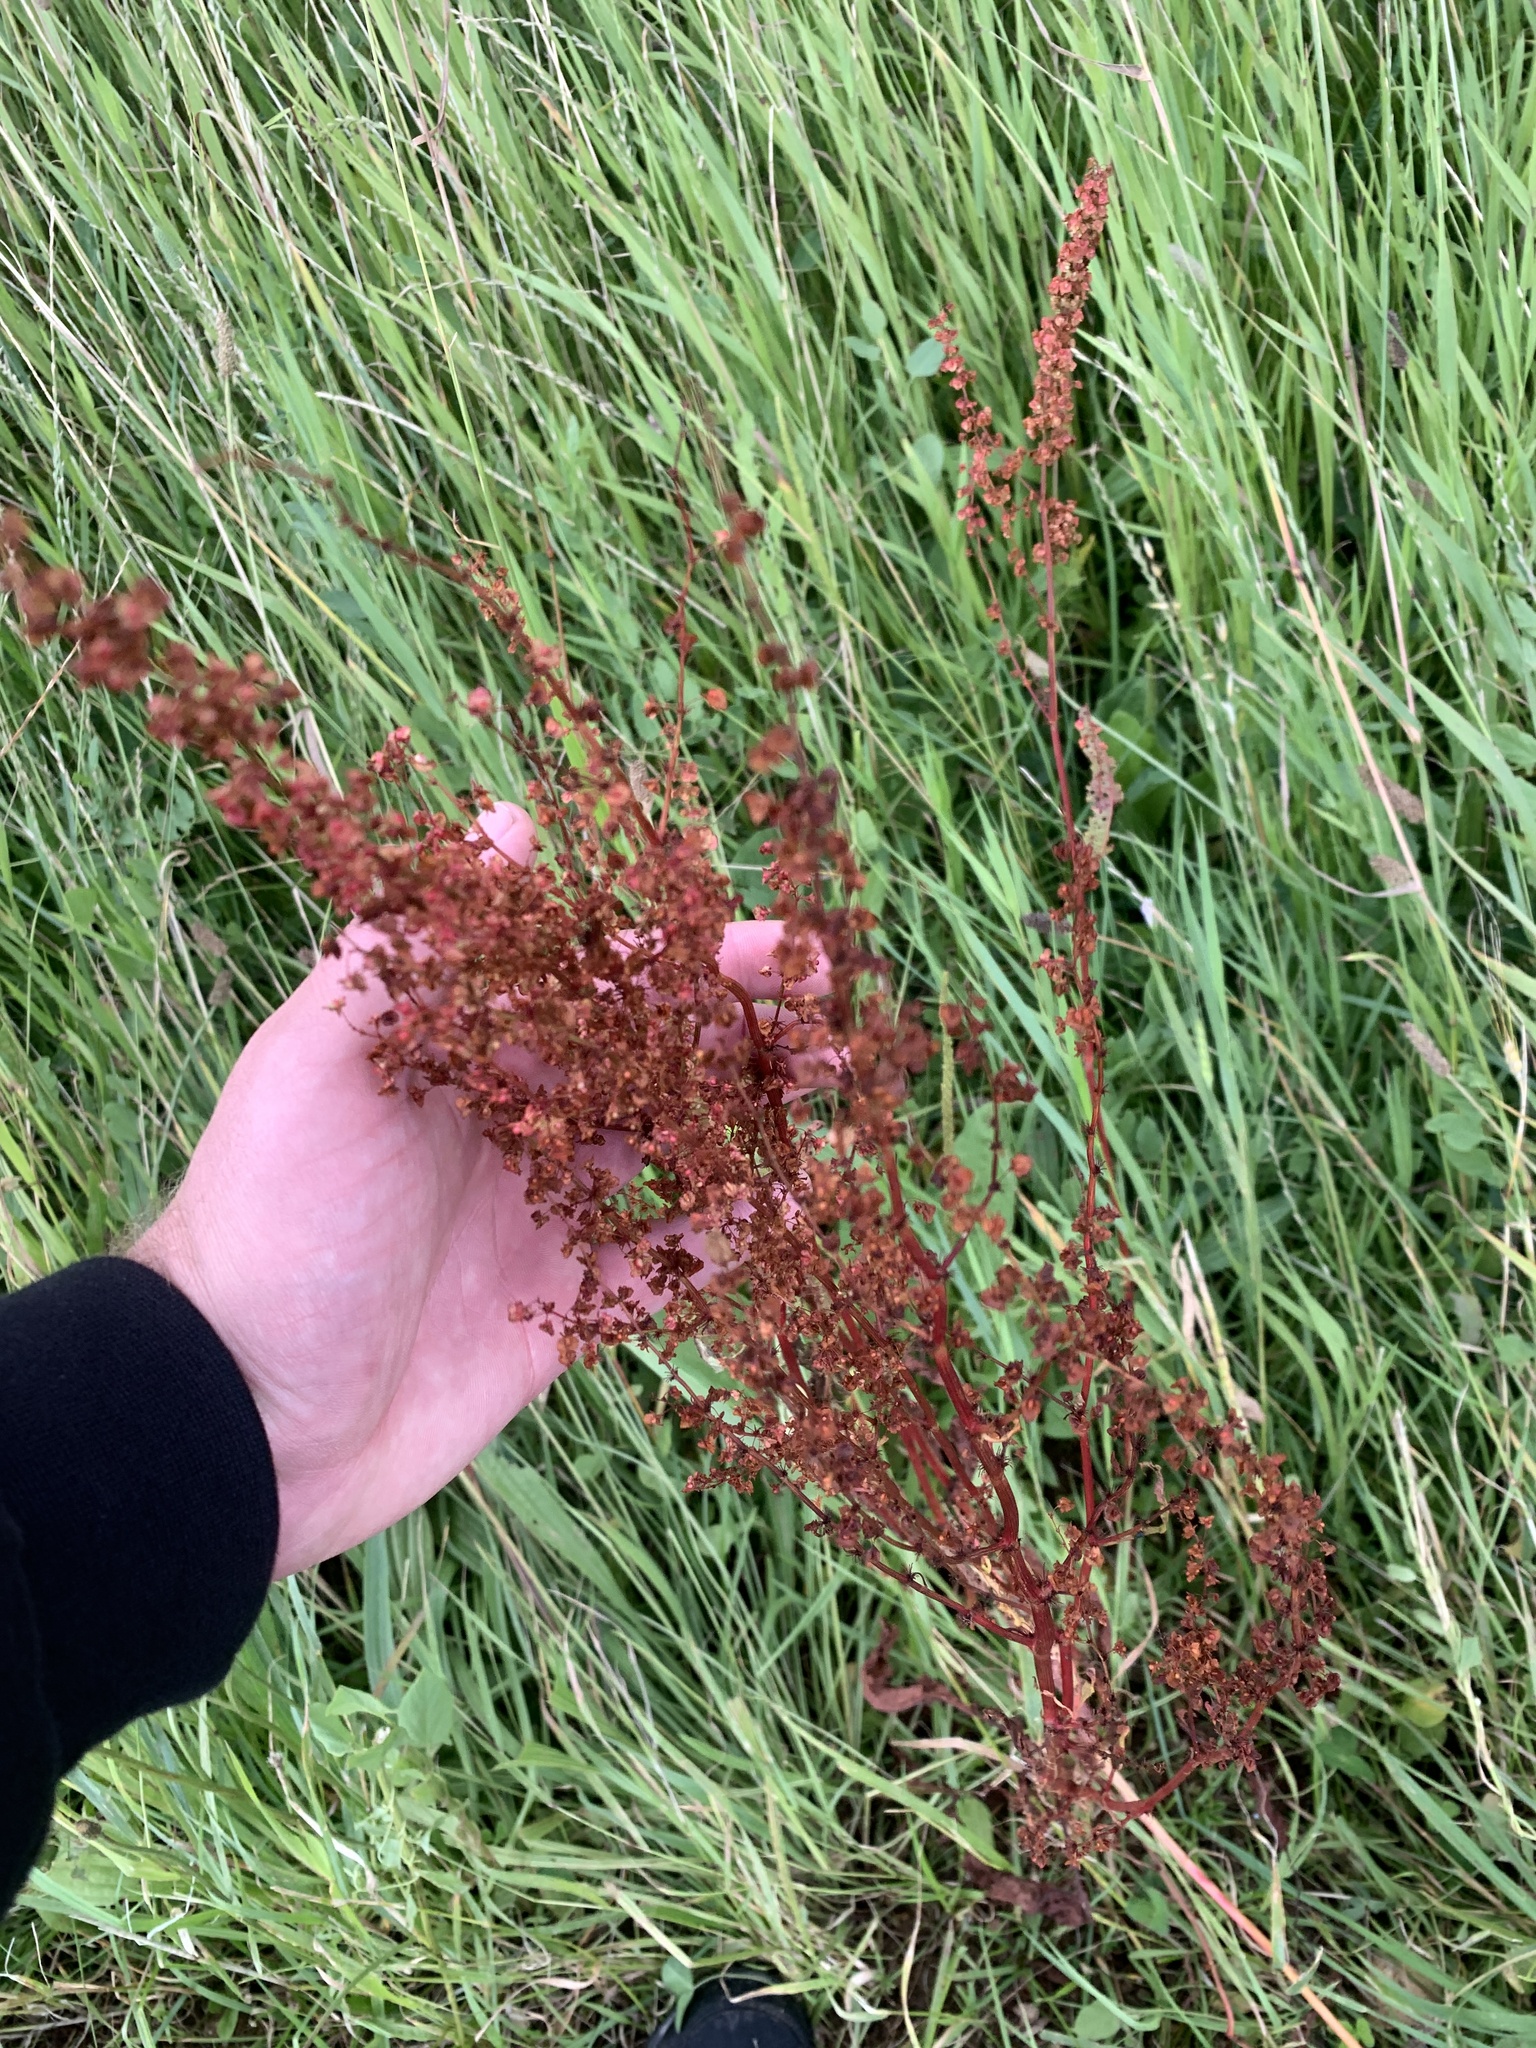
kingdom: Plantae
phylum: Tracheophyta
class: Magnoliopsida
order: Caryophyllales
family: Polygonaceae
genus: Rumex
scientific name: Rumex sanguineus
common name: Wood dock
